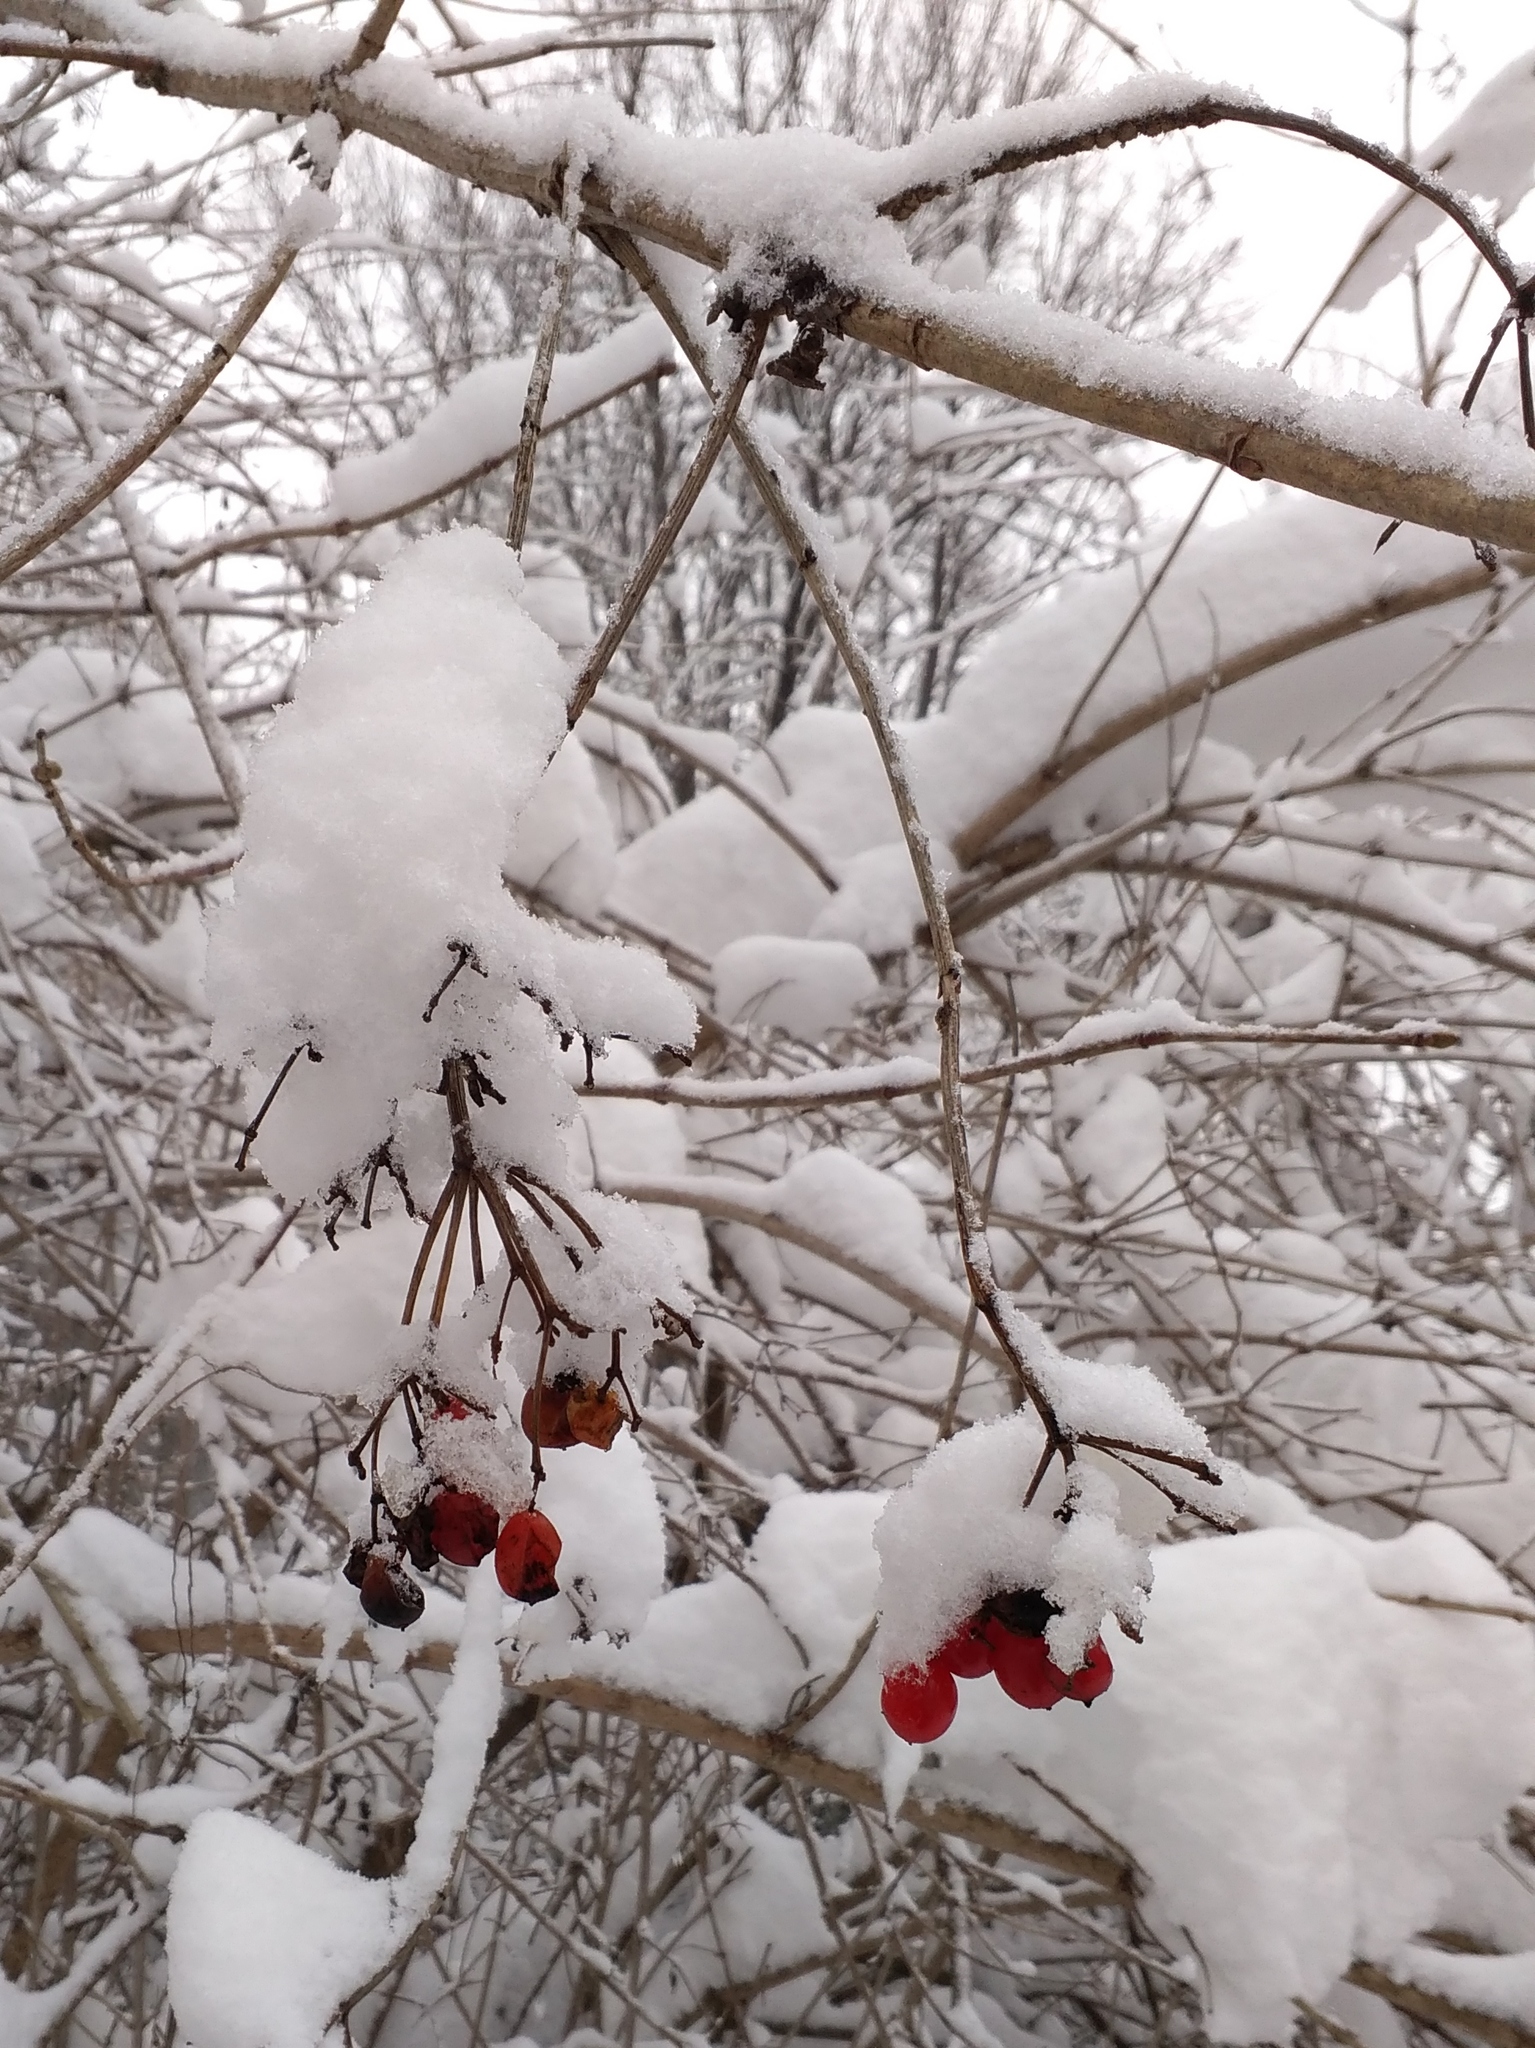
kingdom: Plantae
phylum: Tracheophyta
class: Magnoliopsida
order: Dipsacales
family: Viburnaceae
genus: Viburnum
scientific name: Viburnum opulus
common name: Guelder-rose
